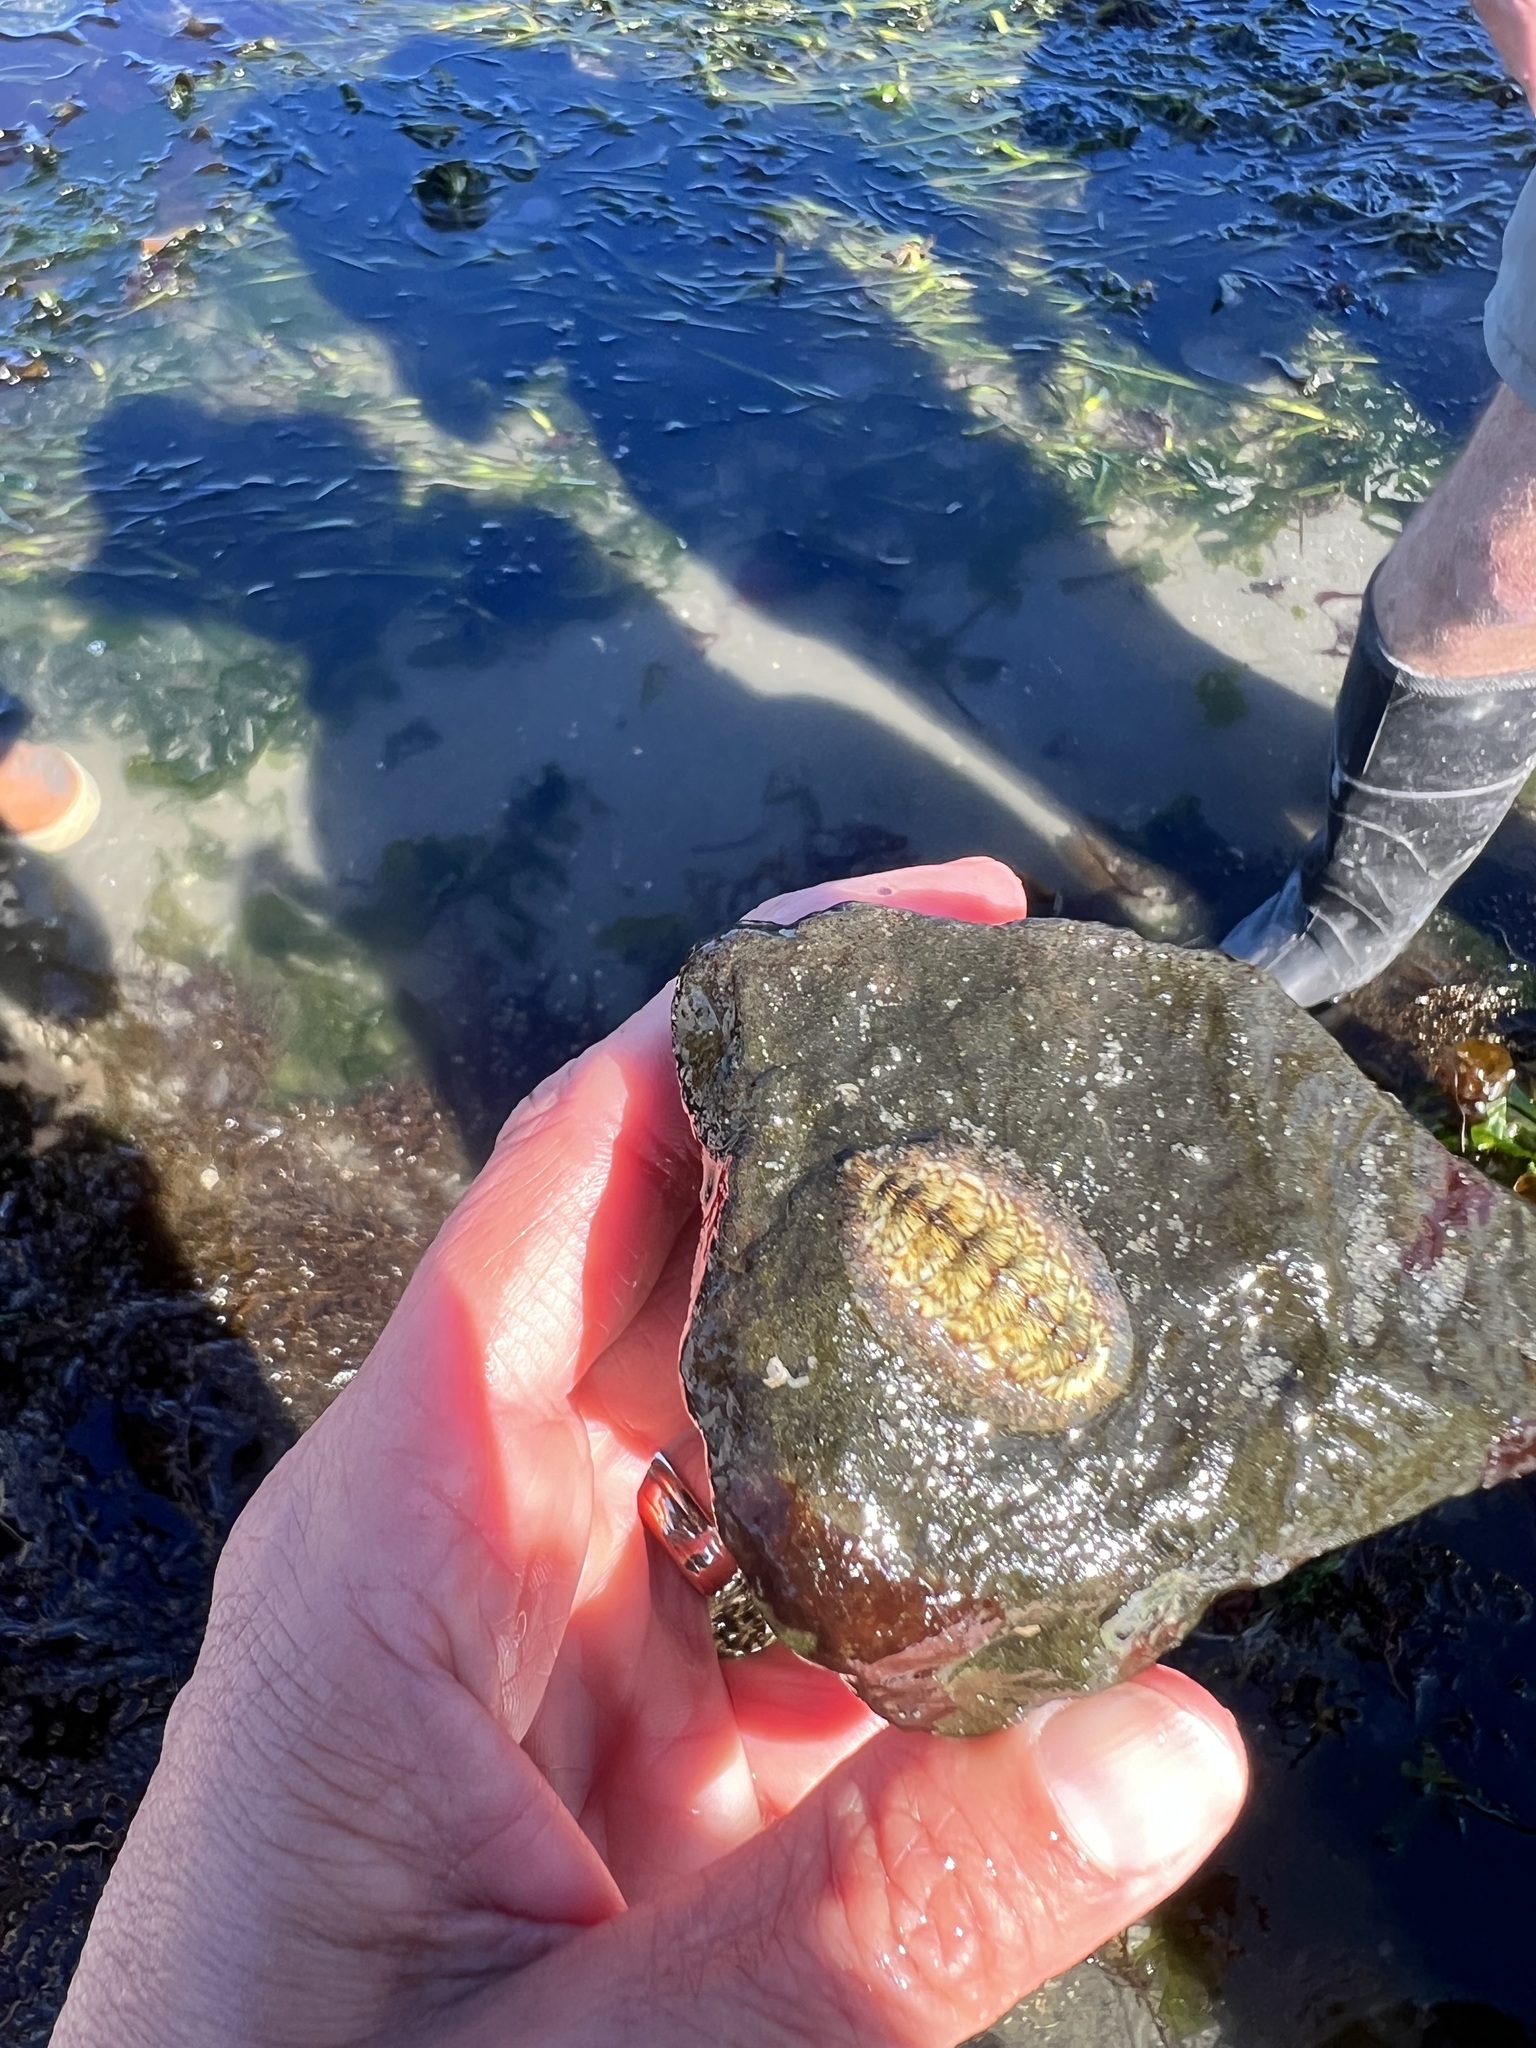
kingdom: Animalia
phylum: Mollusca
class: Polyplacophora
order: Chitonida
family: Mopaliidae
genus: Mopalia
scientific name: Mopalia lignosa
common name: Woody chiton
